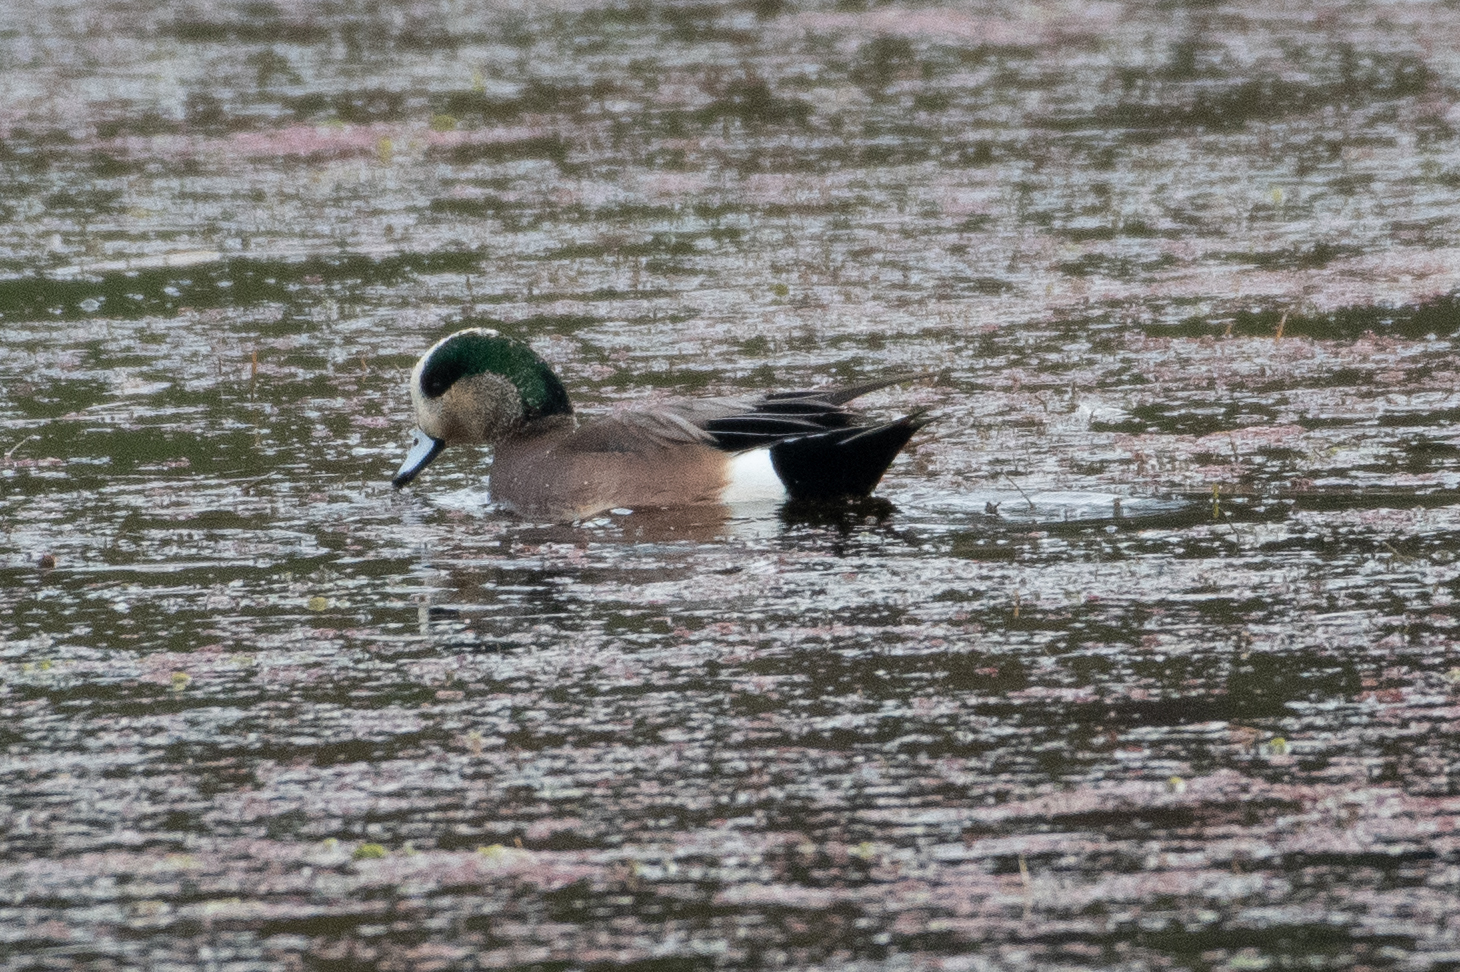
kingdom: Animalia
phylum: Chordata
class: Aves
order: Anseriformes
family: Anatidae
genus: Mareca
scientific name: Mareca americana
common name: American wigeon
